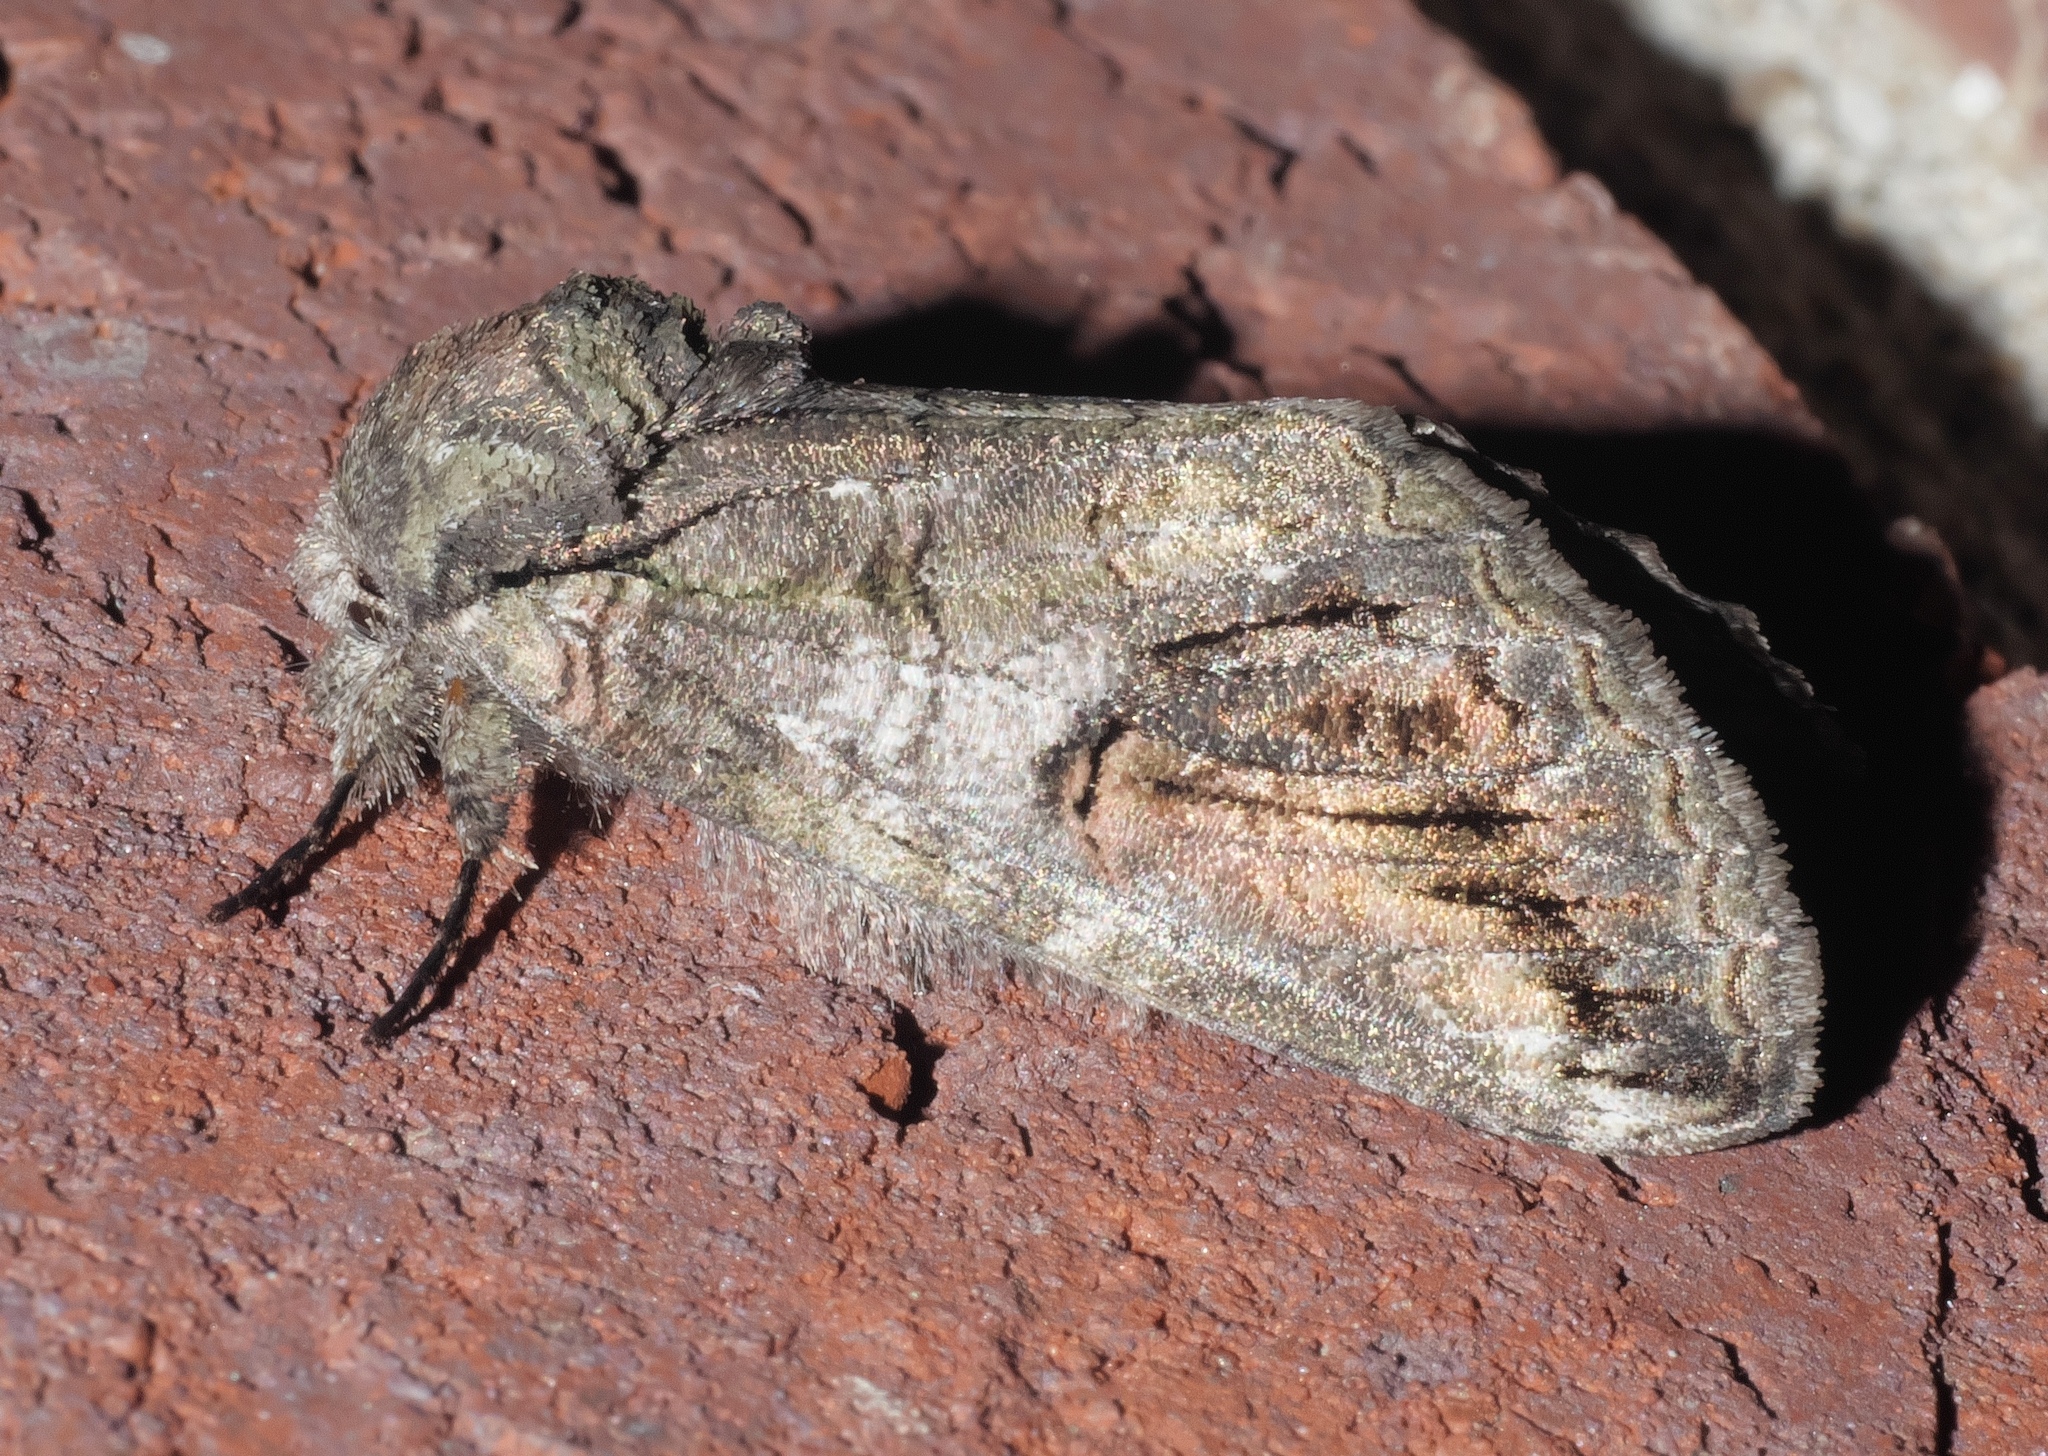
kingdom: Animalia
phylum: Arthropoda
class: Insecta
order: Lepidoptera
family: Notodontidae
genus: Heterocampa
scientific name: Heterocampa obliqua
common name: Oblique heterocampa
